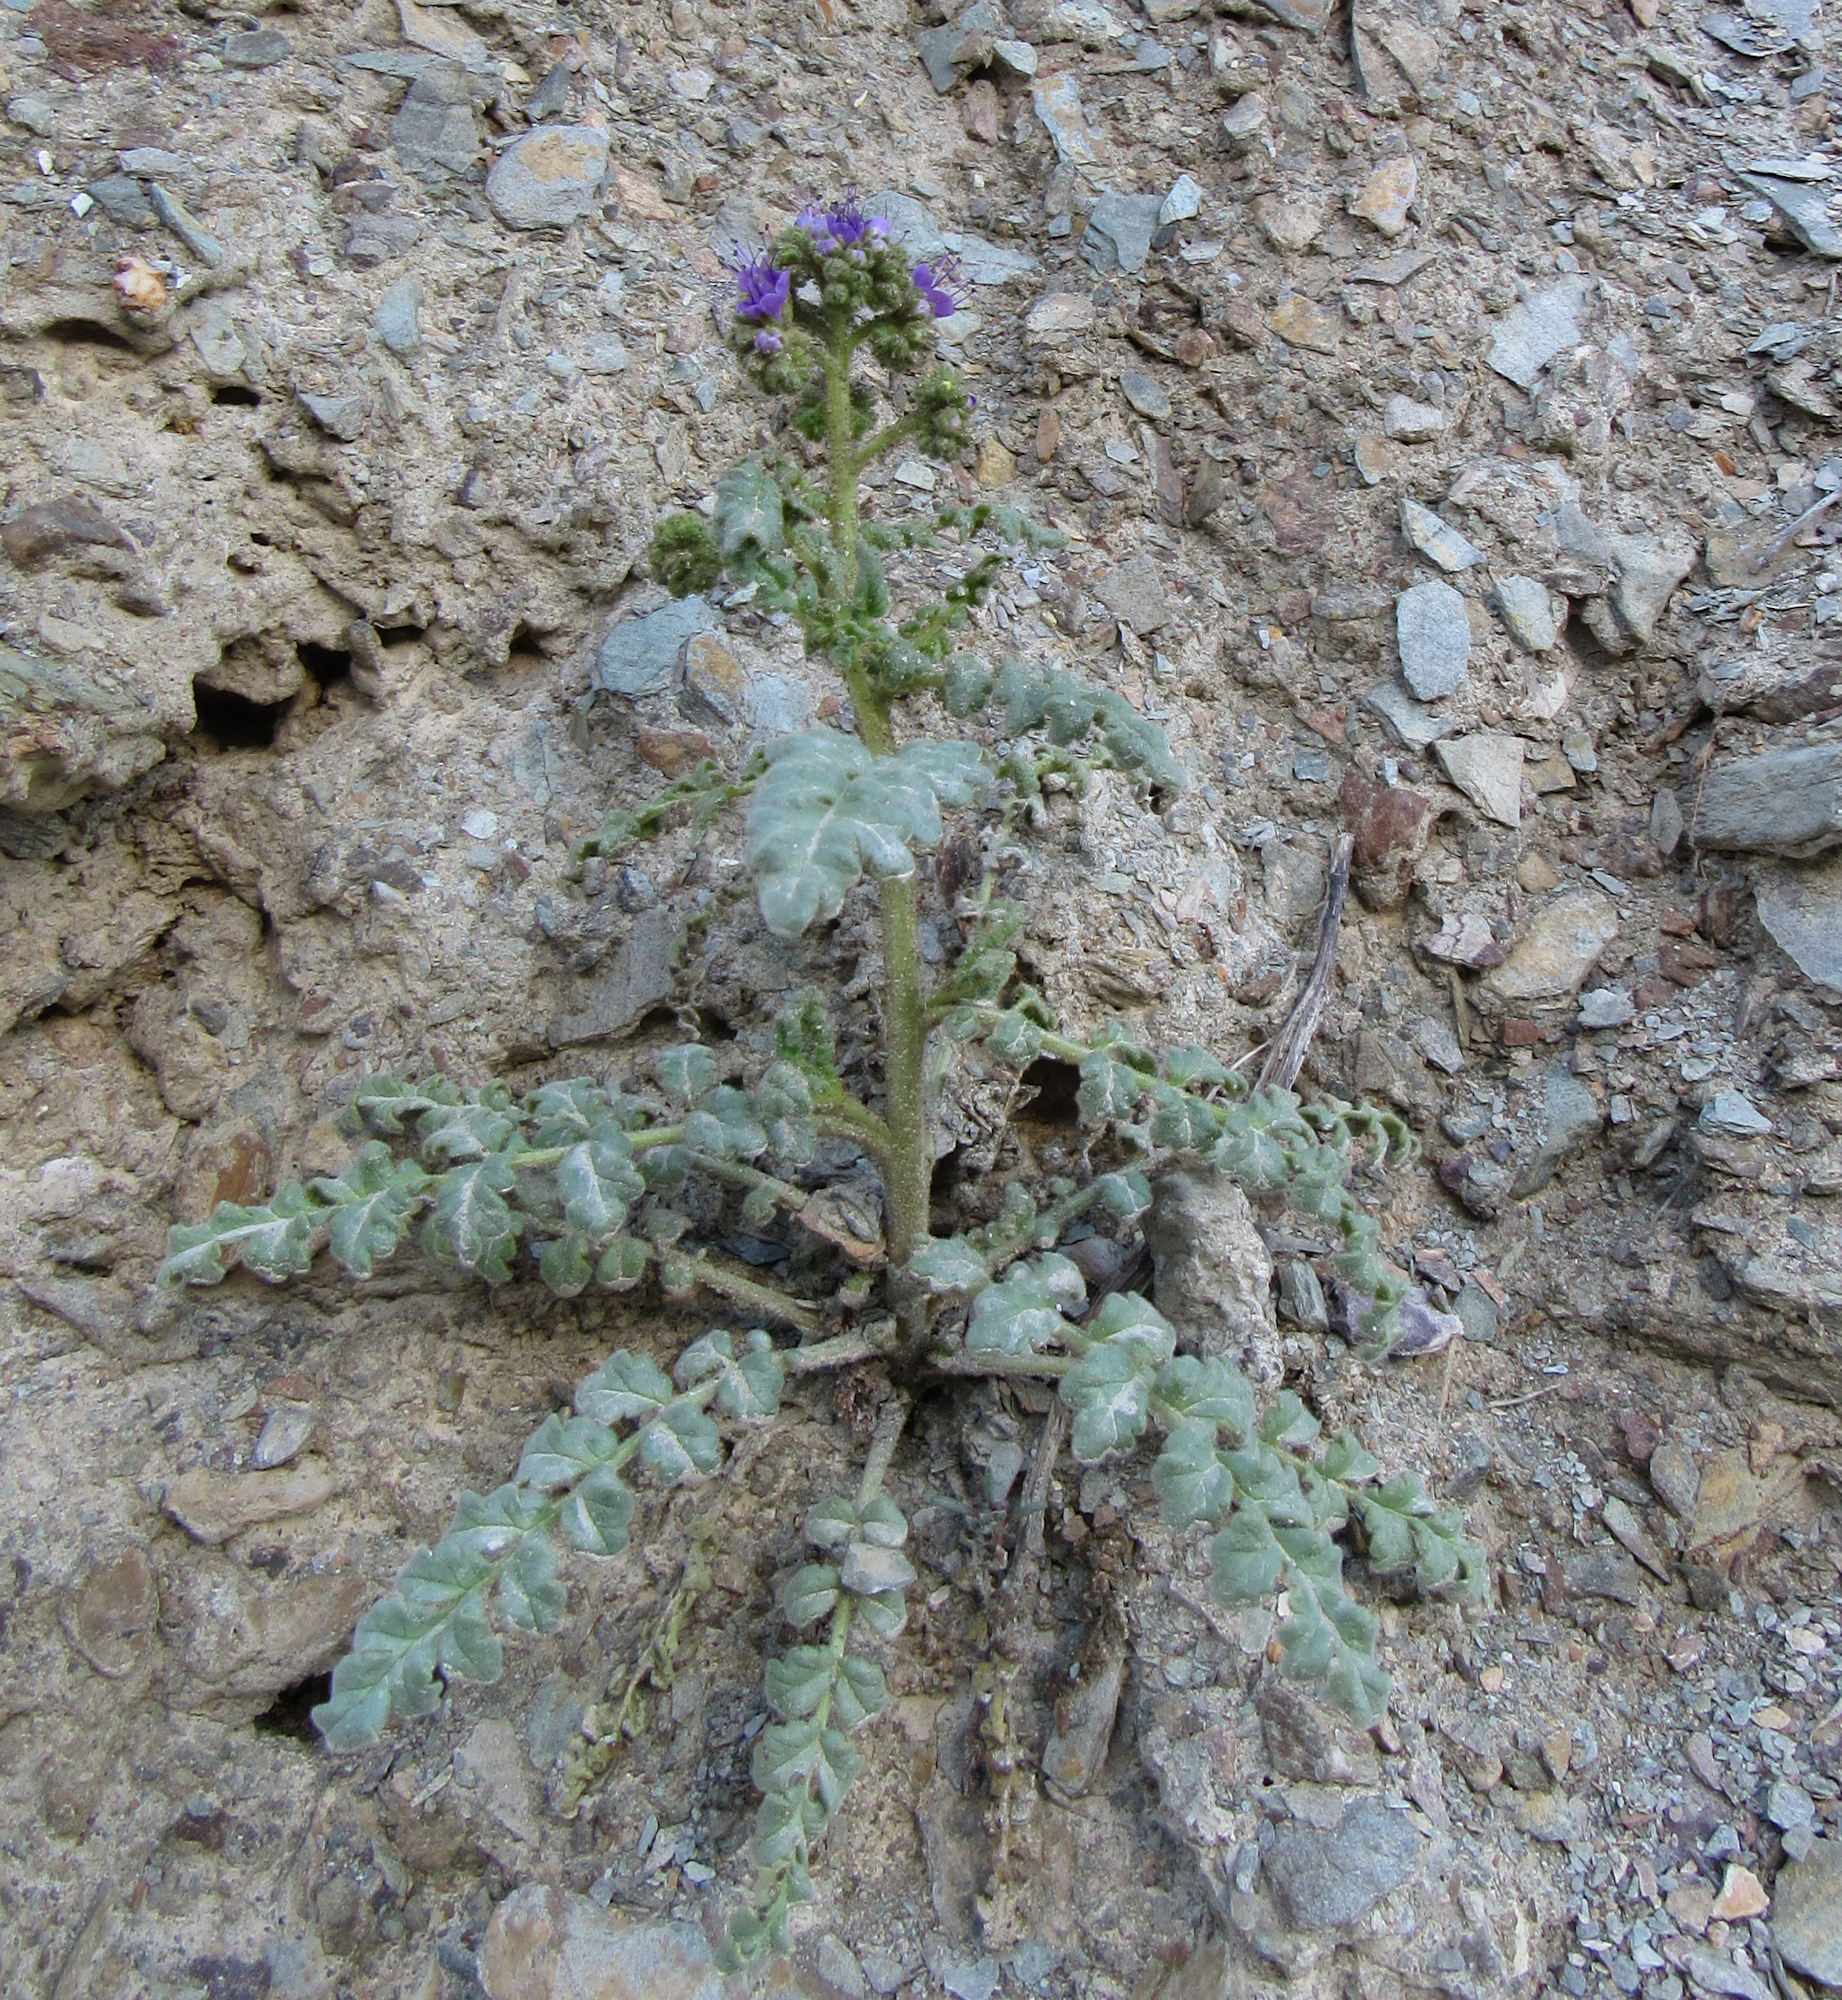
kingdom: Plantae
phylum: Tracheophyta
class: Magnoliopsida
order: Boraginales
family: Hydrophyllaceae
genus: Phacelia
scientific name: Phacelia glandulosa
